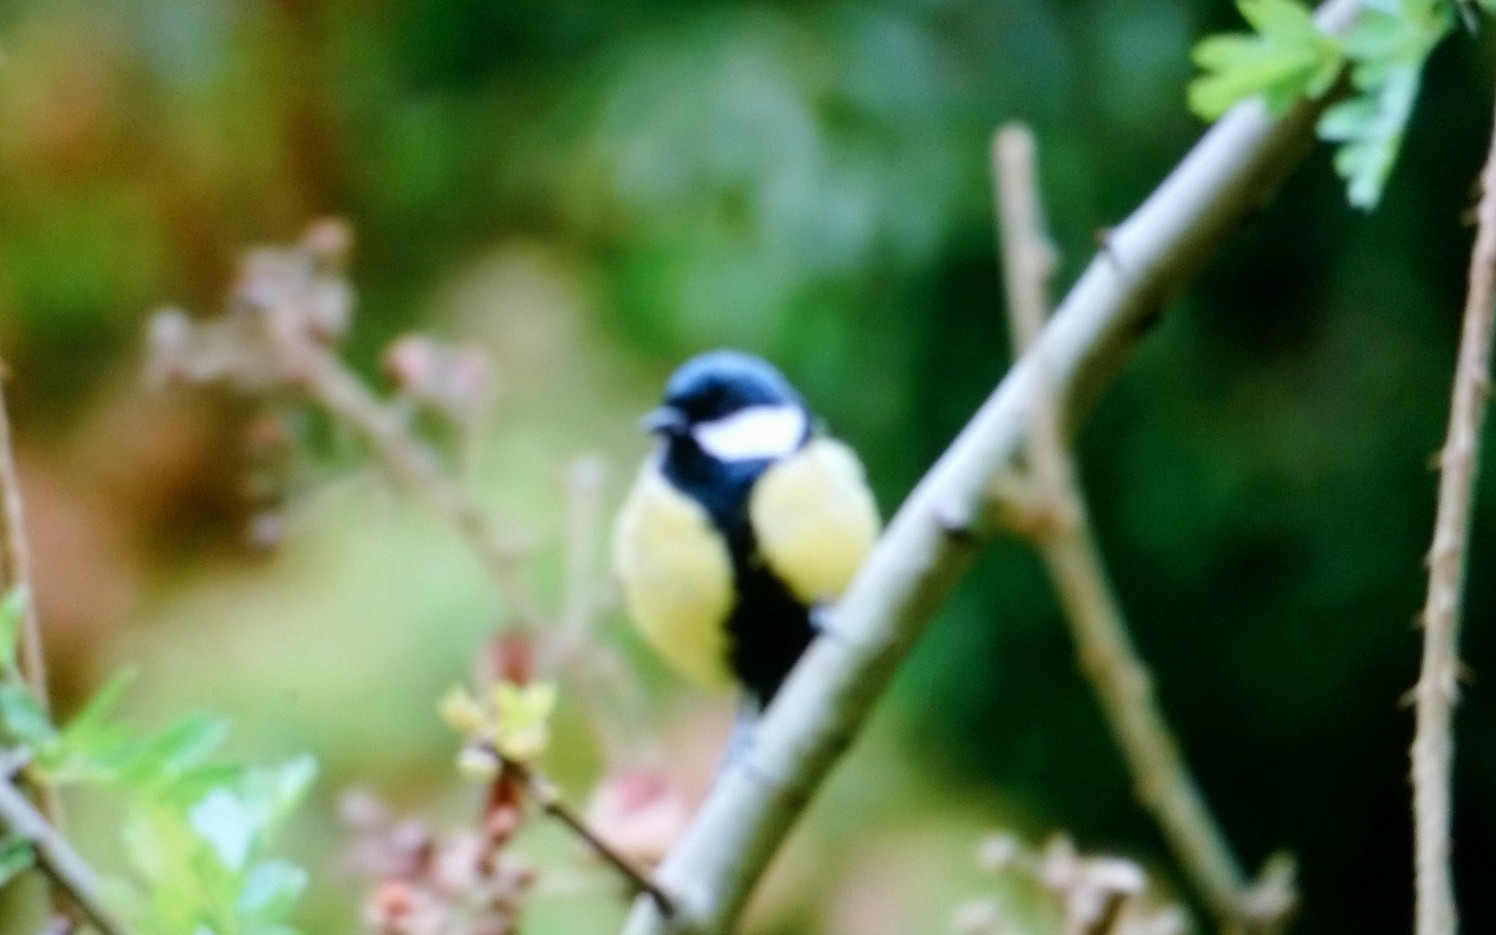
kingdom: Animalia
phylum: Chordata
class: Aves
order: Passeriformes
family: Paridae
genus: Parus
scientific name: Parus major
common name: Great tit
